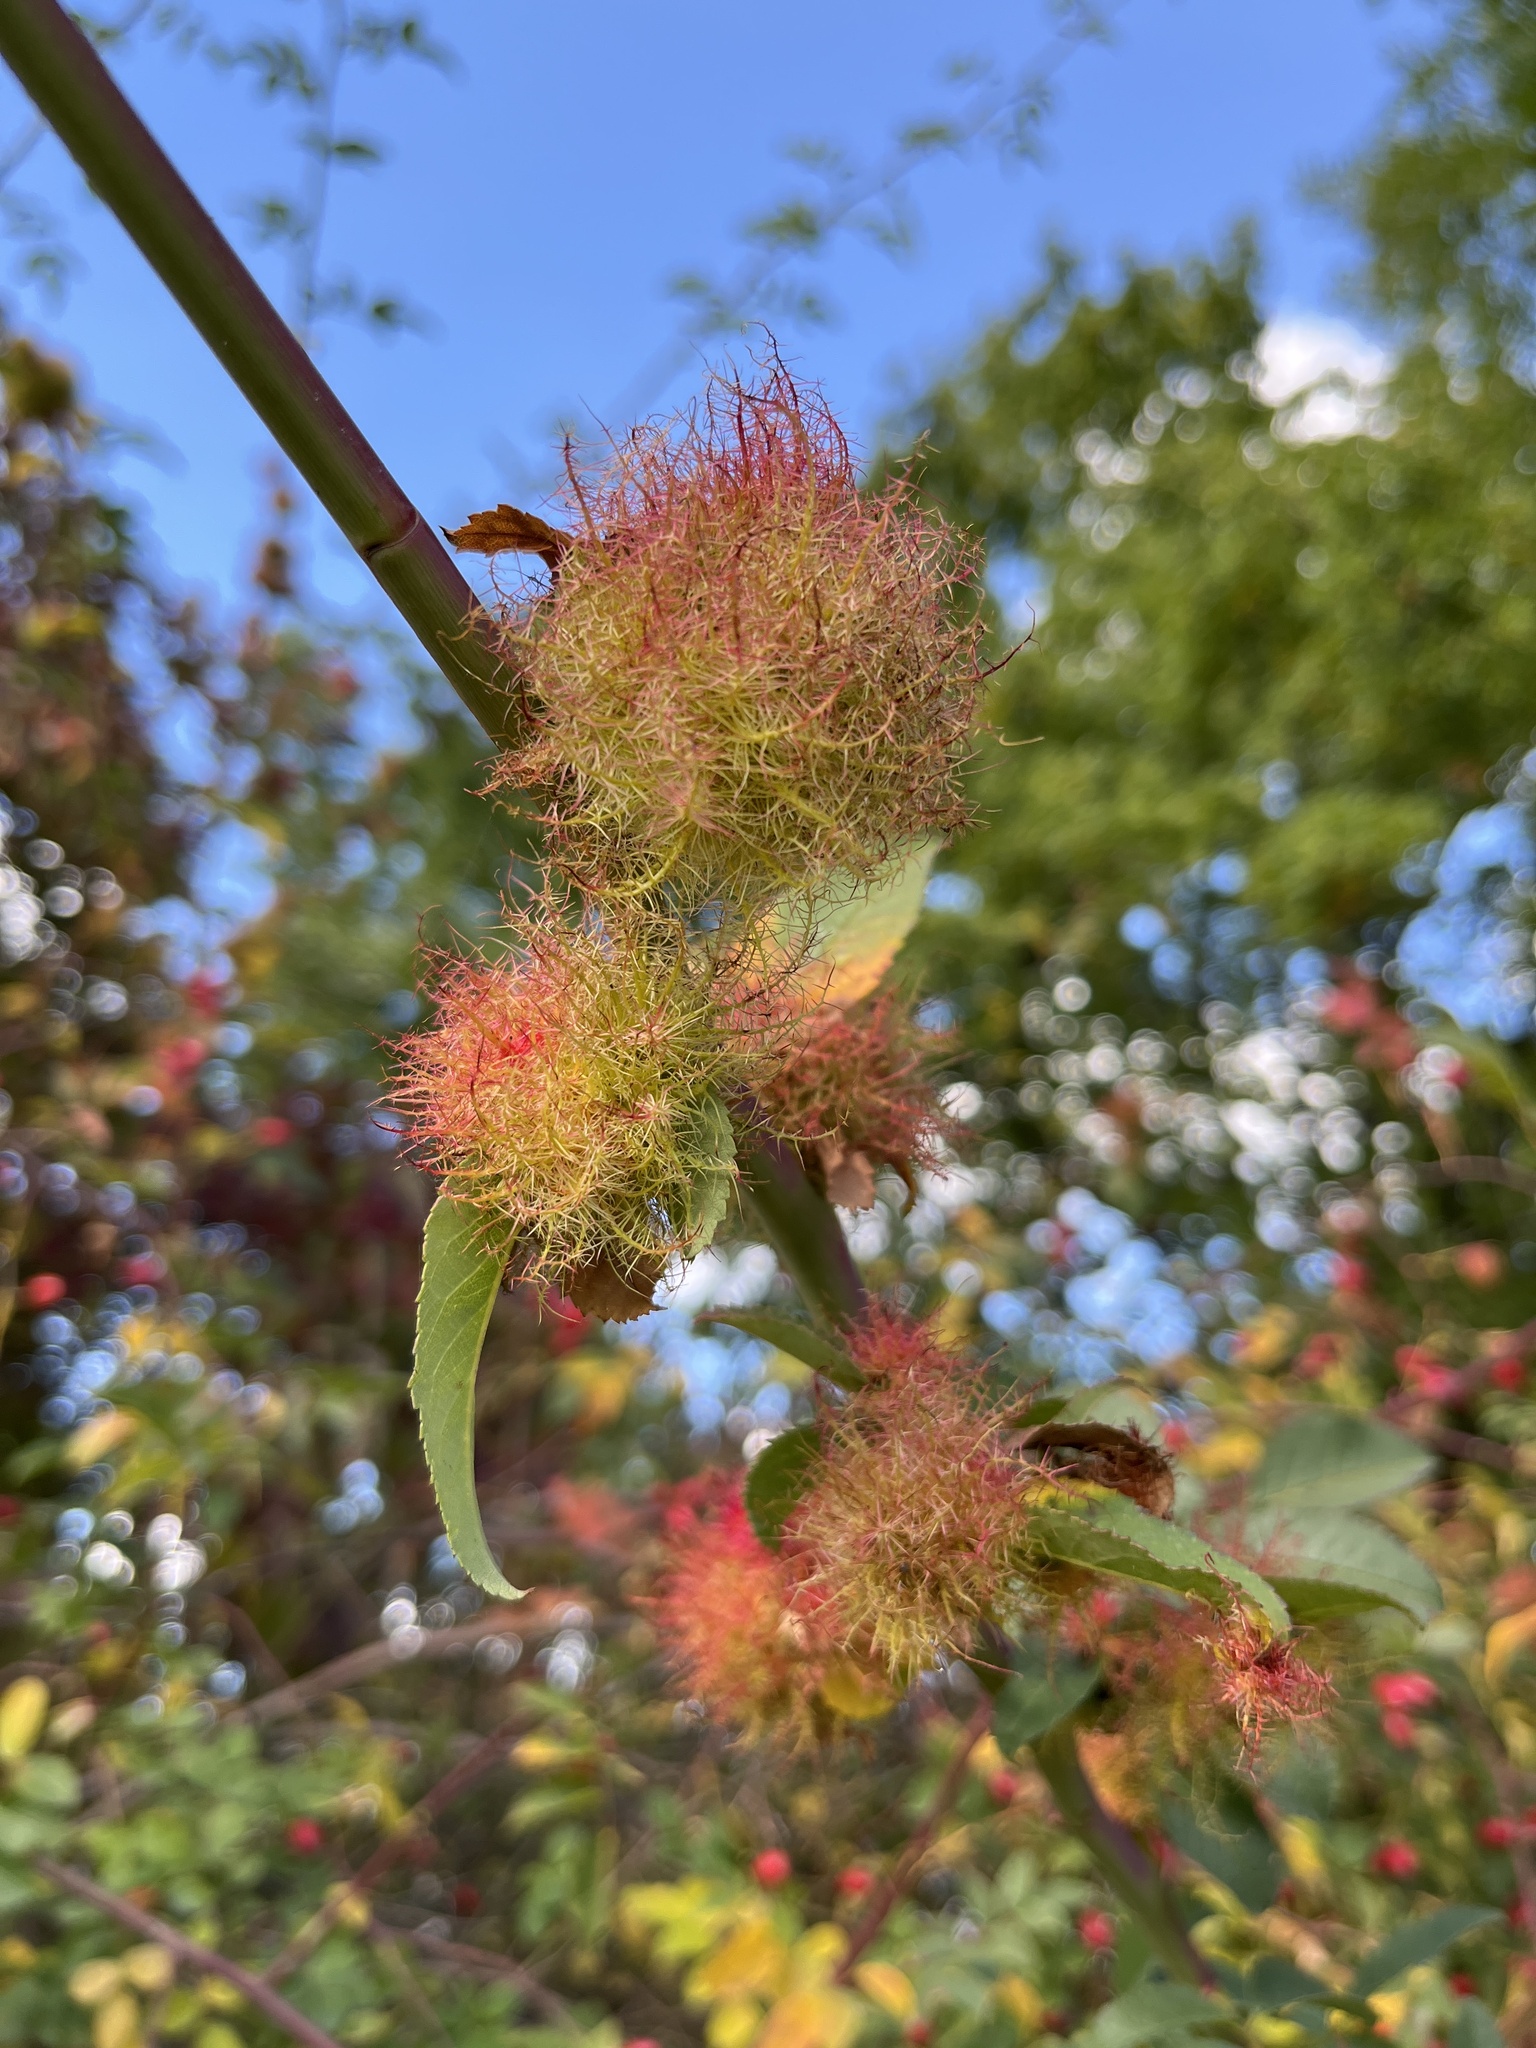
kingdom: Animalia
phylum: Arthropoda
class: Insecta
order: Hymenoptera
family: Cynipidae
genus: Diplolepis
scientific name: Diplolepis rosae
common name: Bedeguar gall
